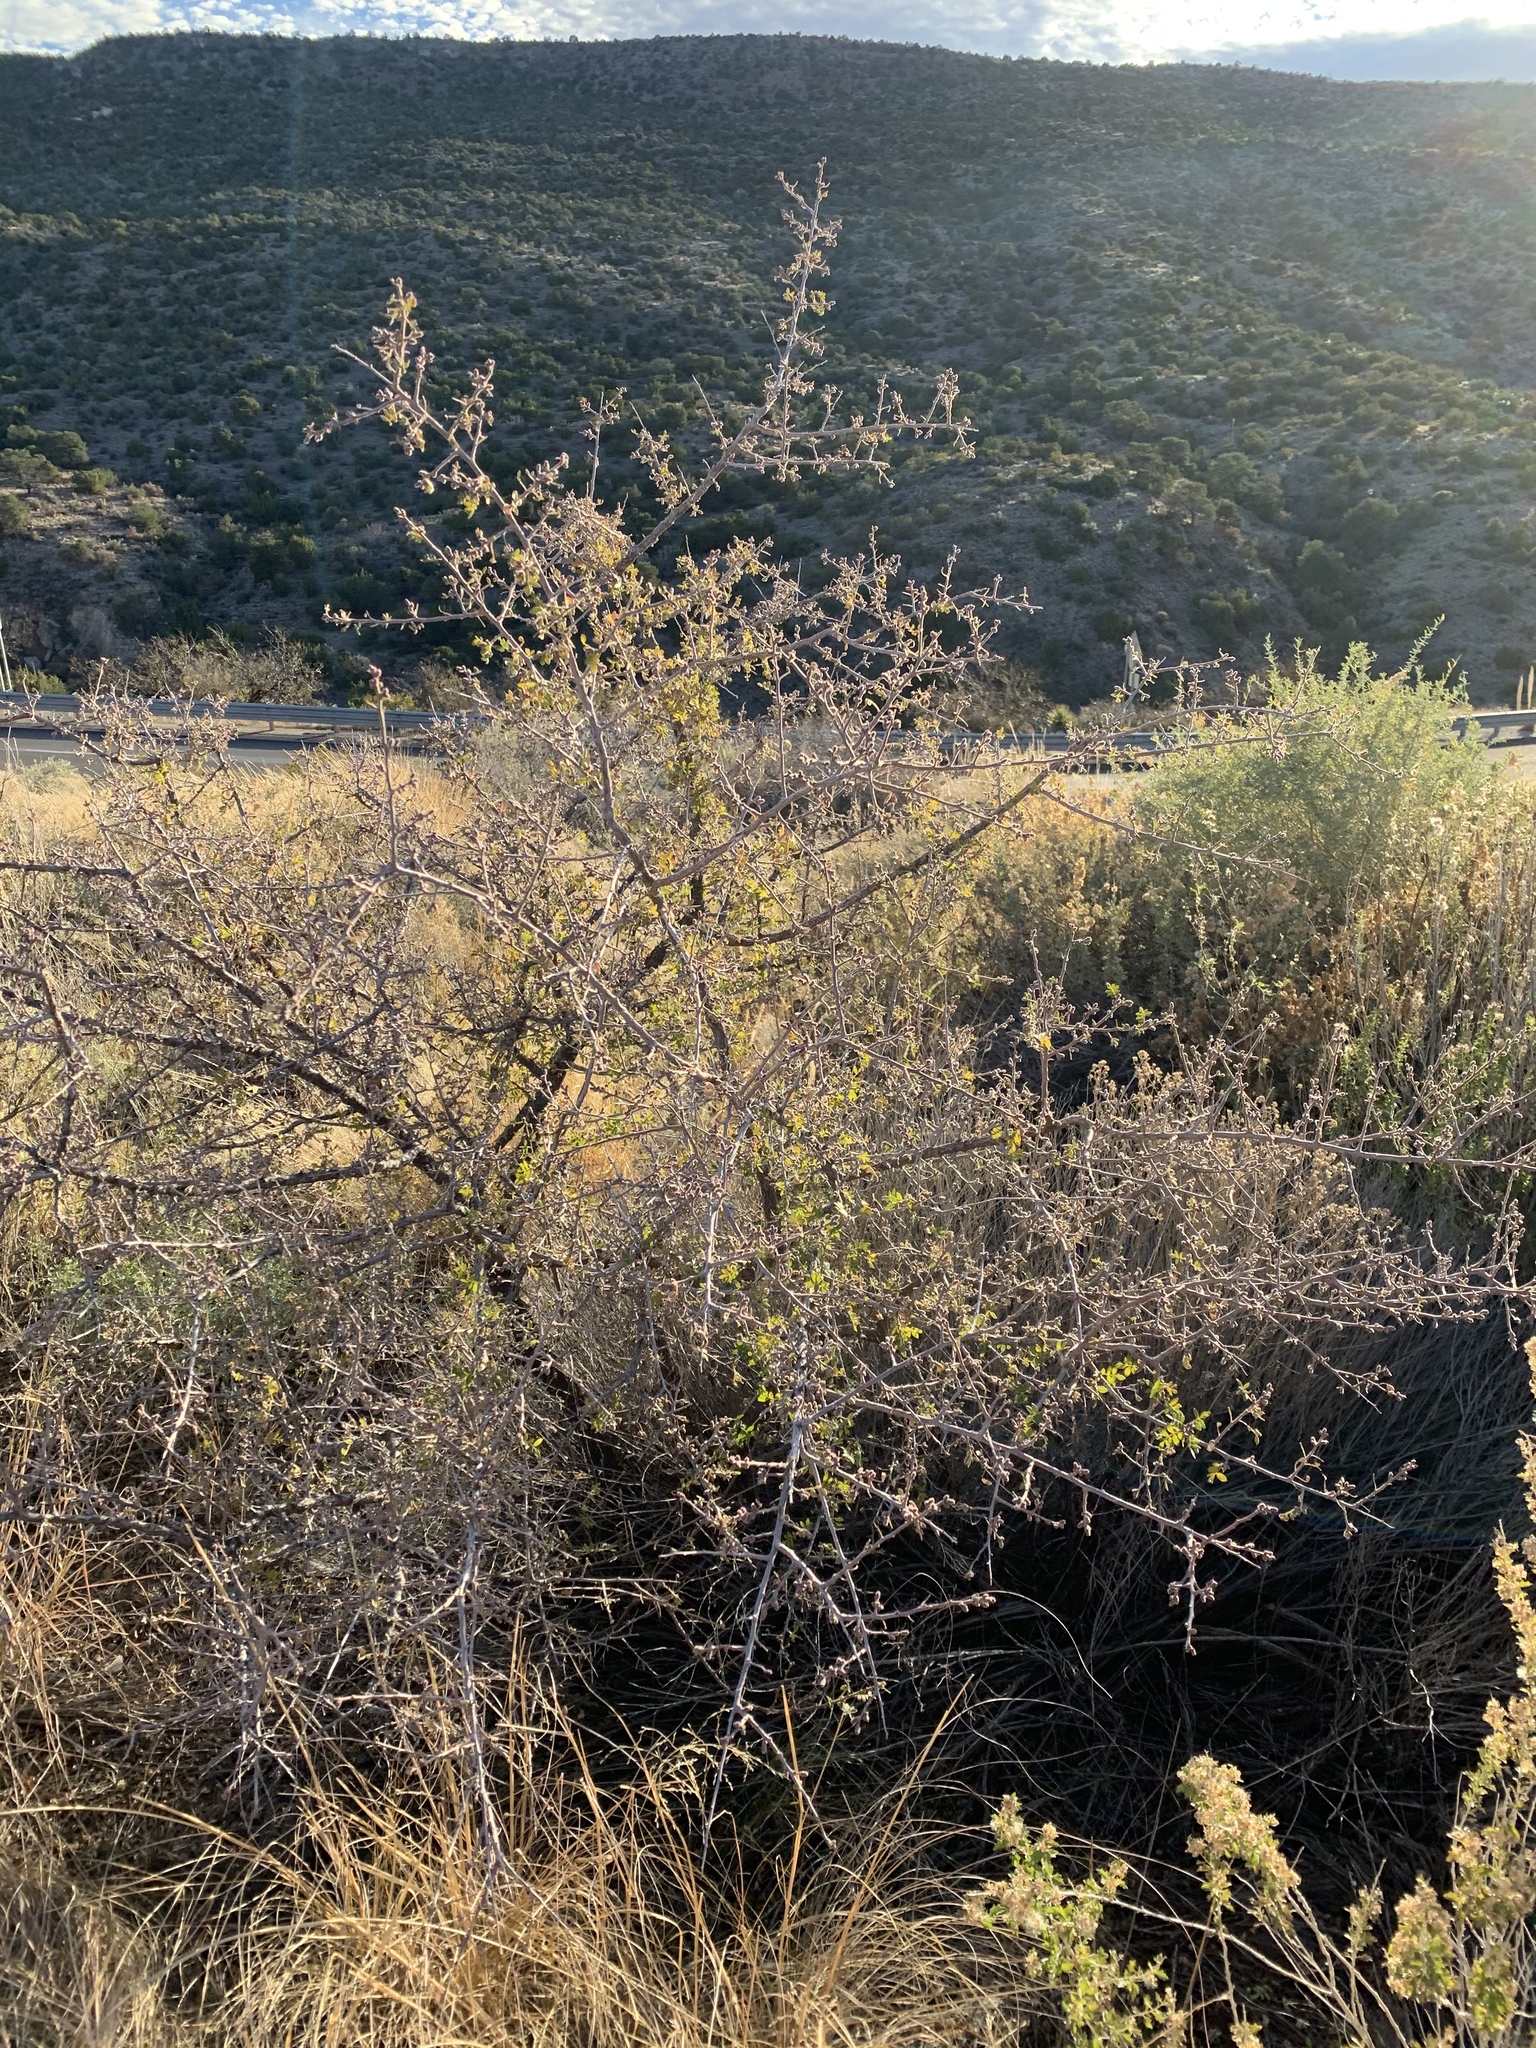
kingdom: Plantae
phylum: Tracheophyta
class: Magnoliopsida
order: Sapindales
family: Anacardiaceae
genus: Rhus
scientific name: Rhus microphylla
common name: Desert sumac
